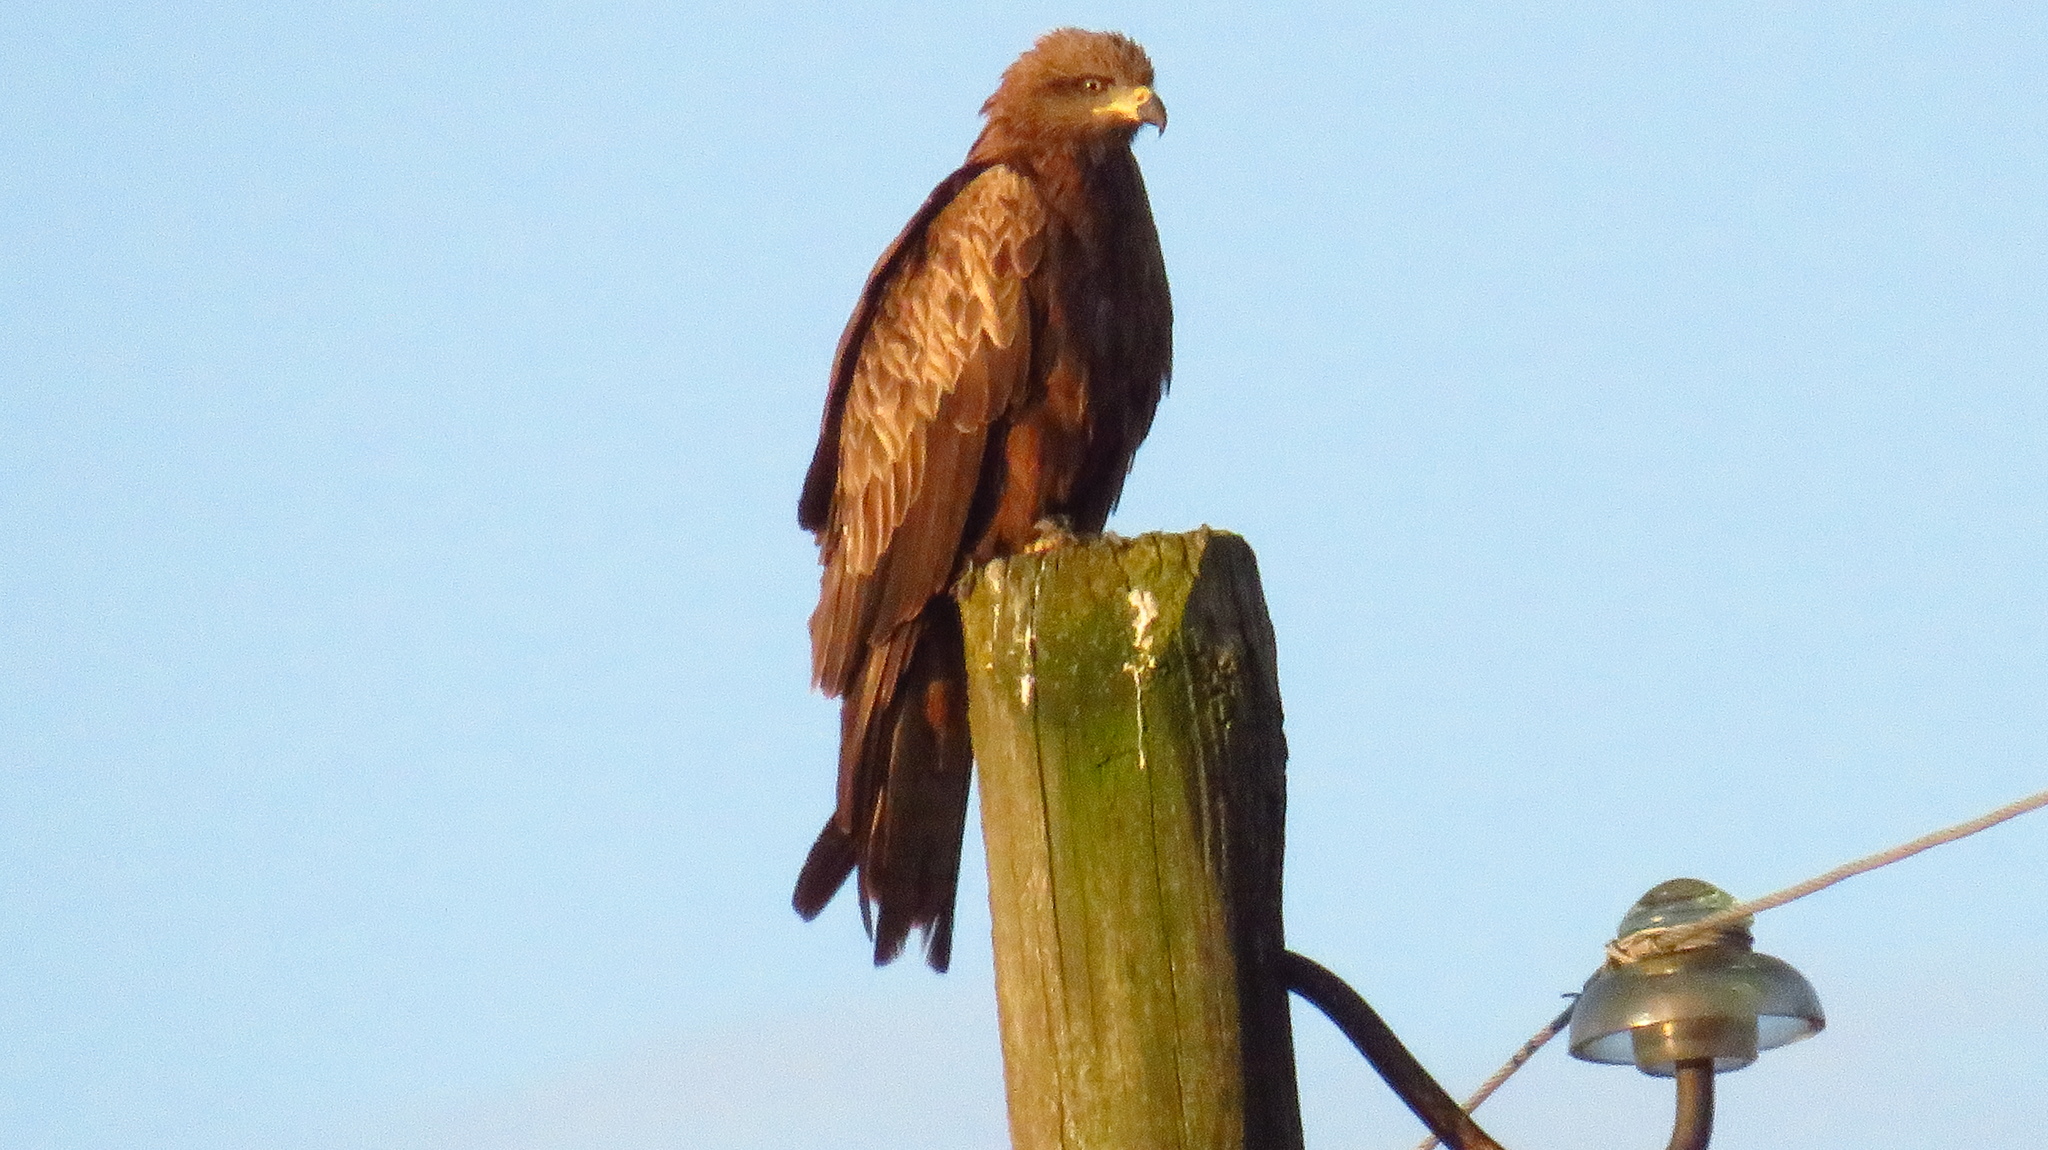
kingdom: Animalia
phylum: Chordata
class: Aves
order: Accipitriformes
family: Accipitridae
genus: Milvus
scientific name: Milvus migrans
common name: Black kite
